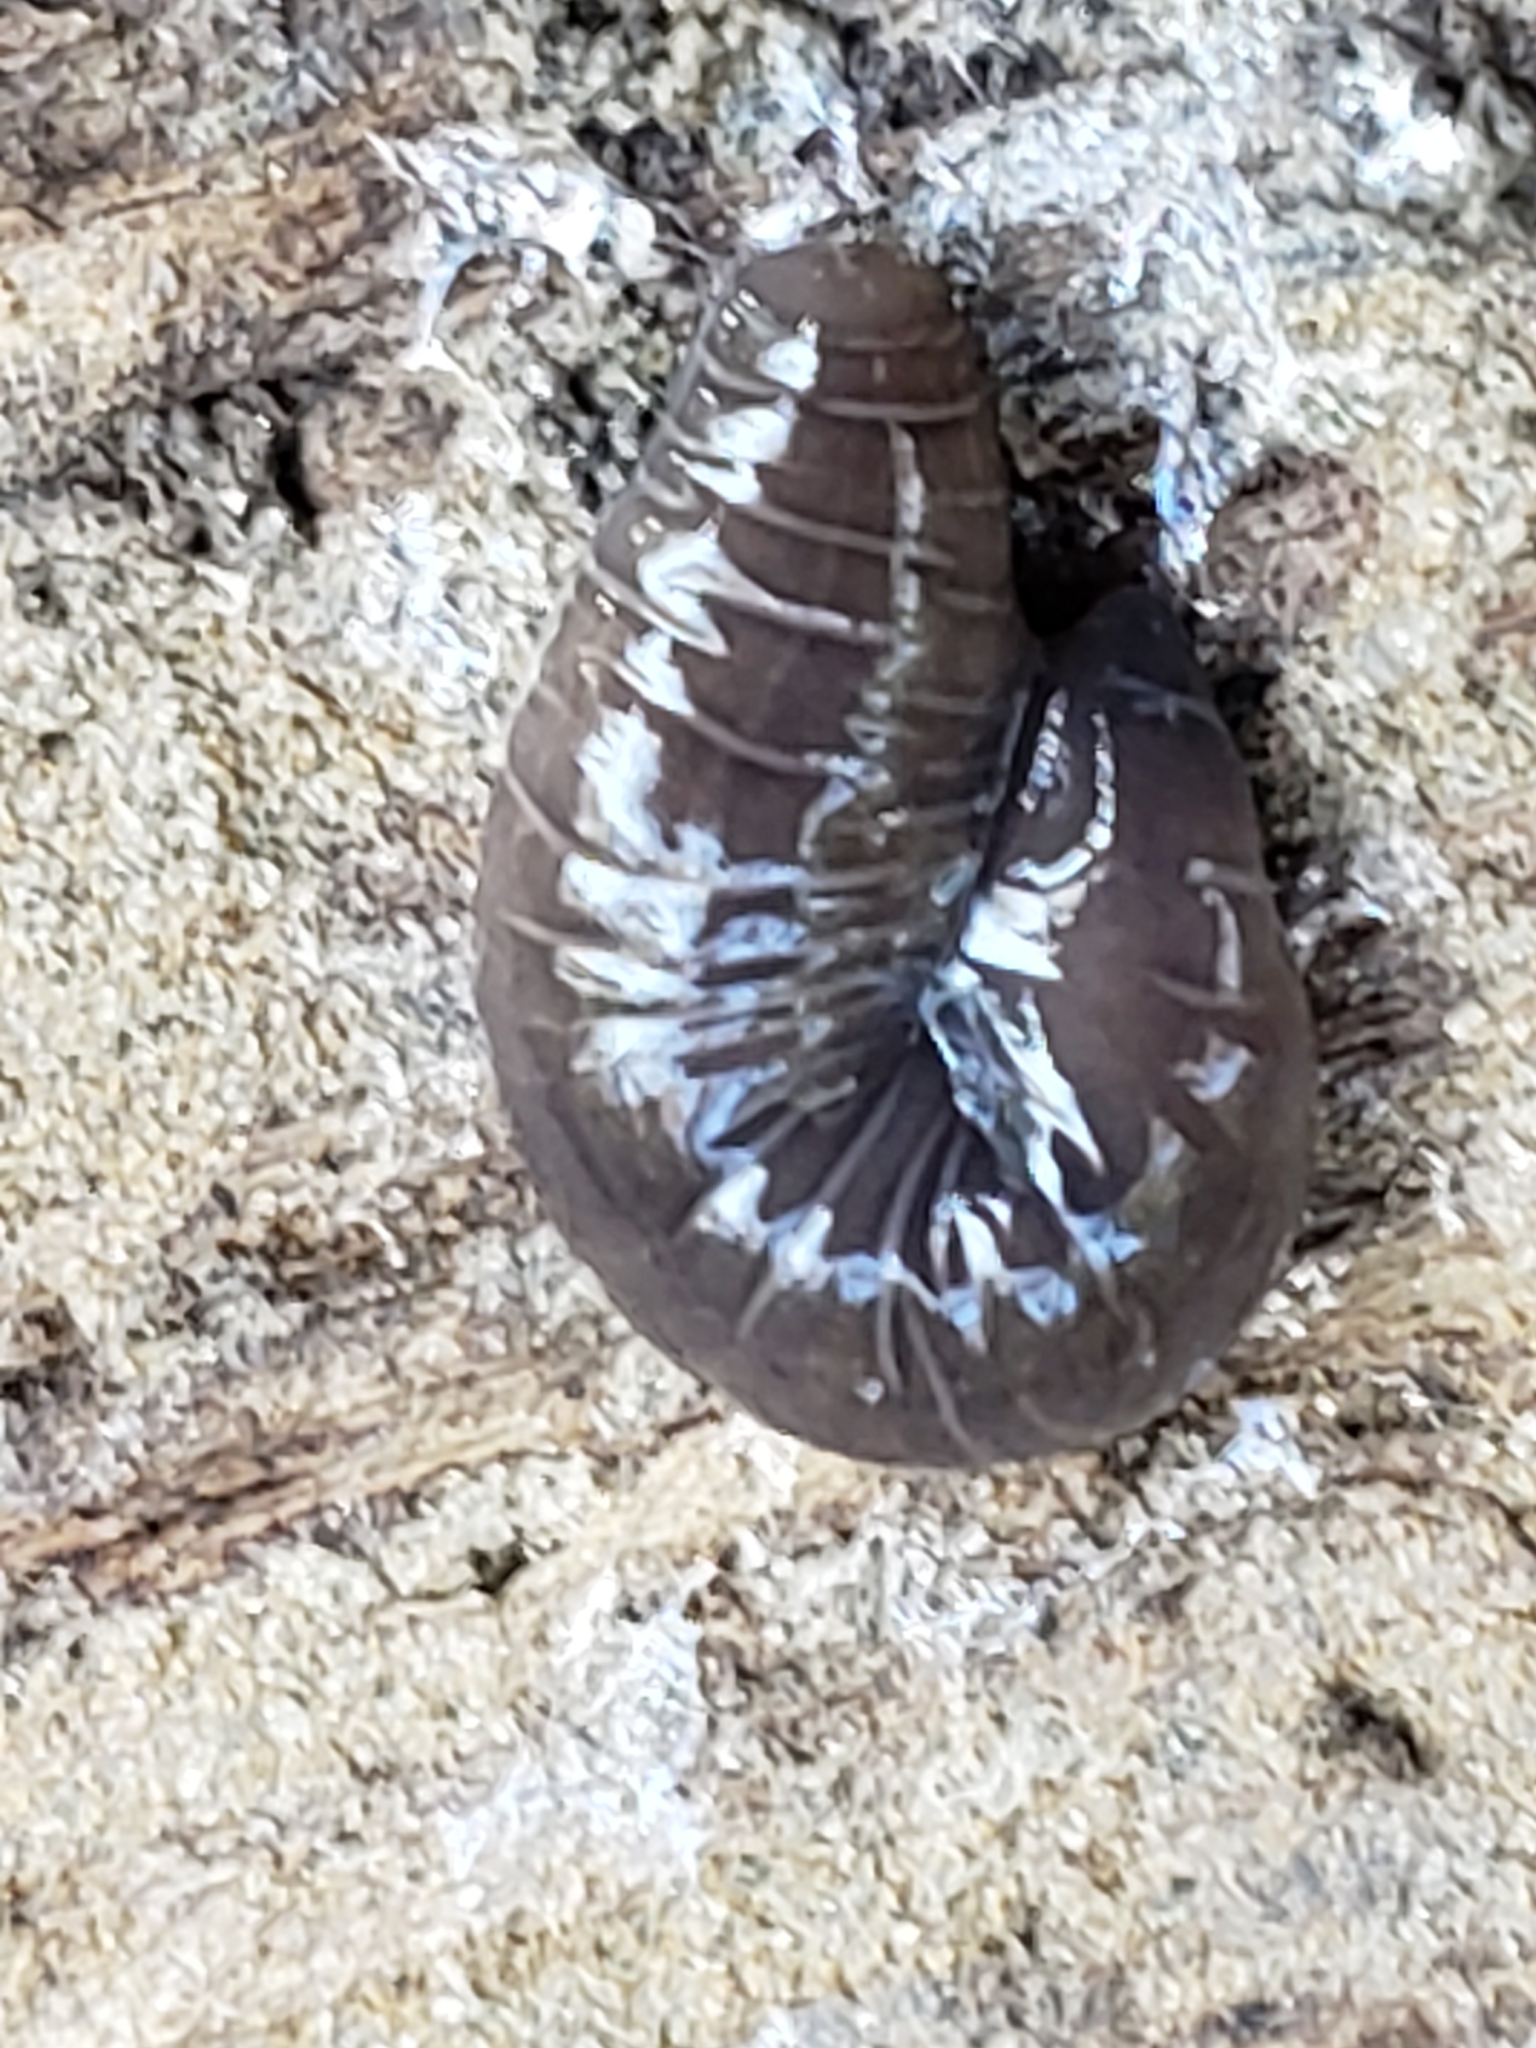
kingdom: Animalia
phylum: Platyhelminthes
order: Tricladida
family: Geoplanidae
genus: Microplana
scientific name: Microplana terrestris
